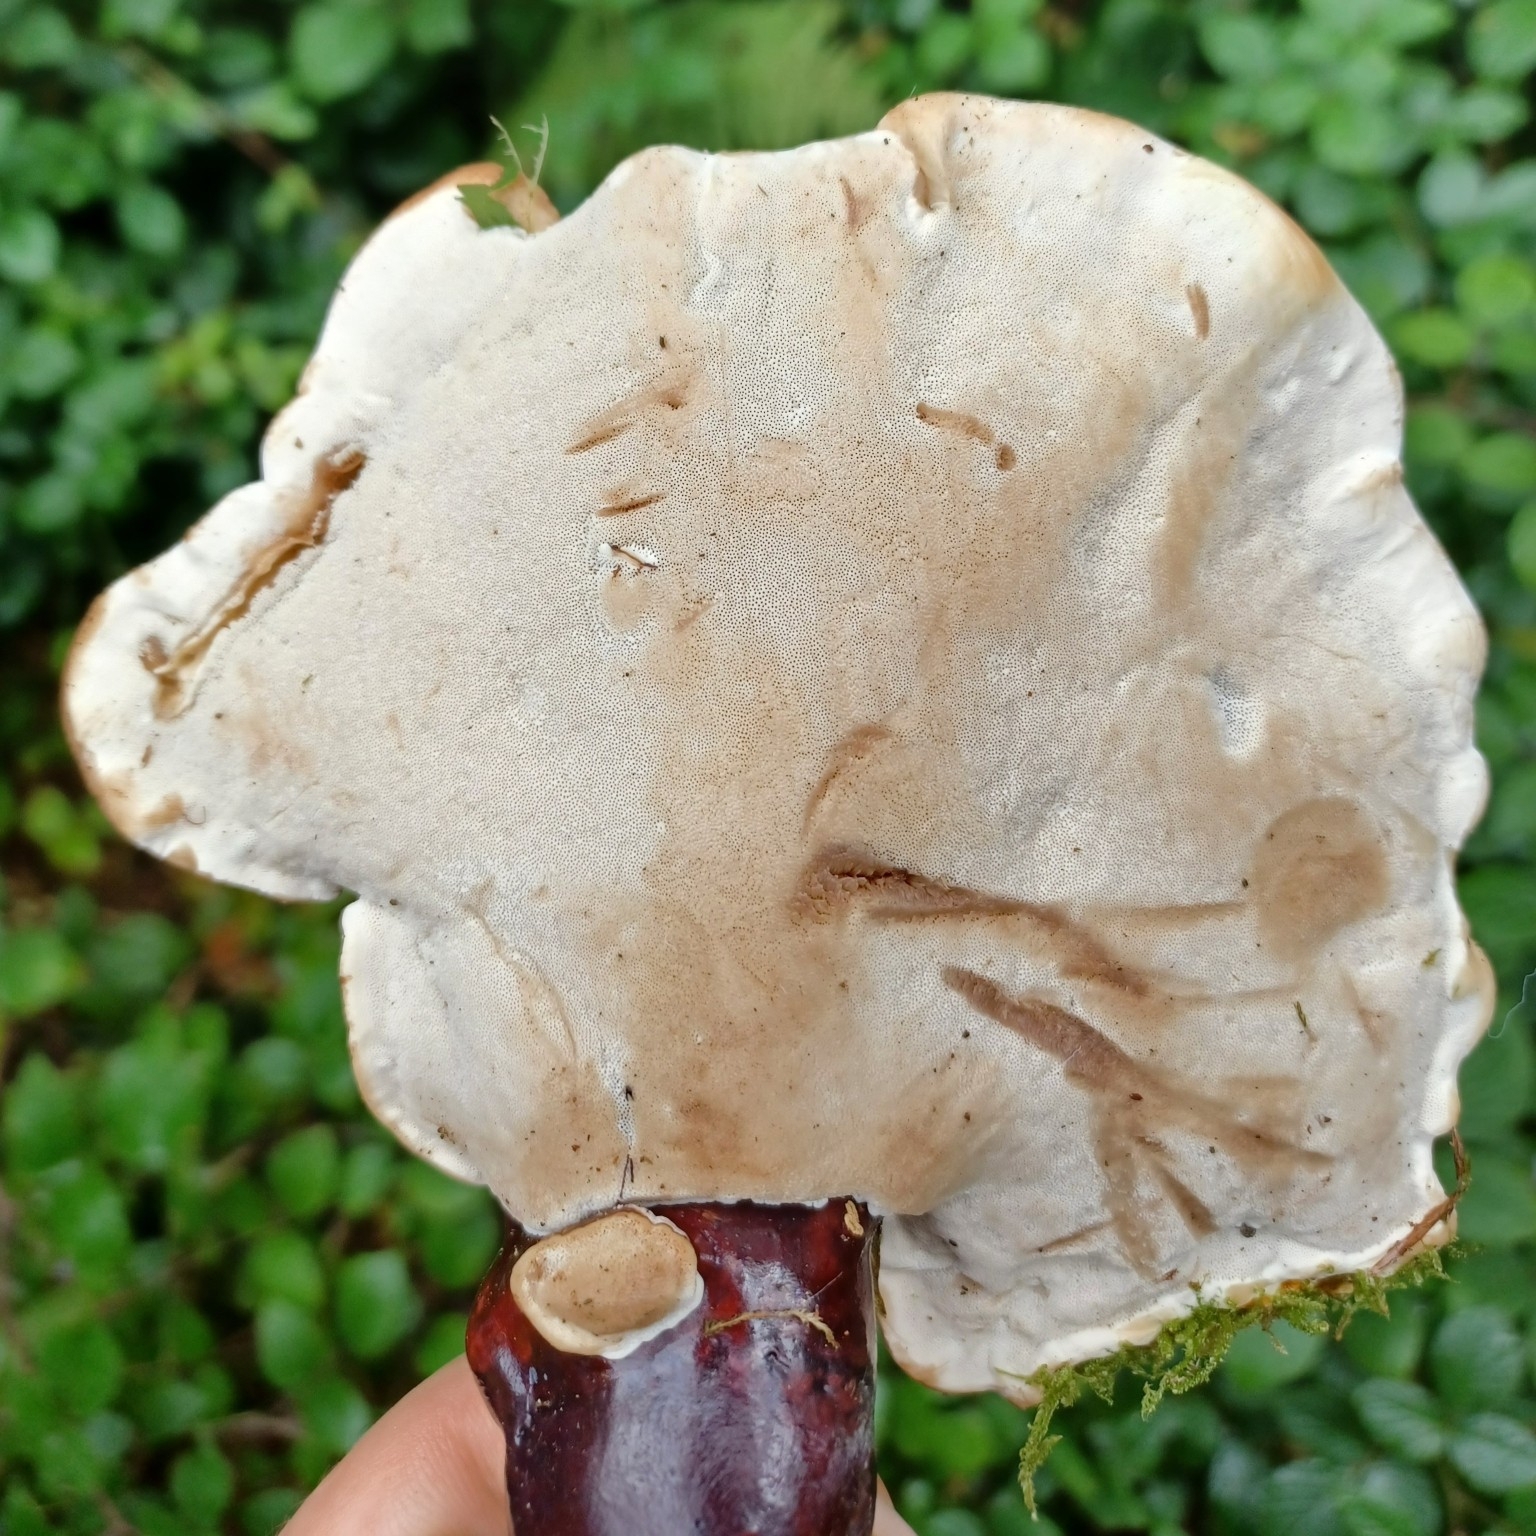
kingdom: Fungi
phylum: Basidiomycota
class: Agaricomycetes
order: Polyporales
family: Polyporaceae
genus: Ganoderma
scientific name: Ganoderma lucidum
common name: Lacquered bracket
